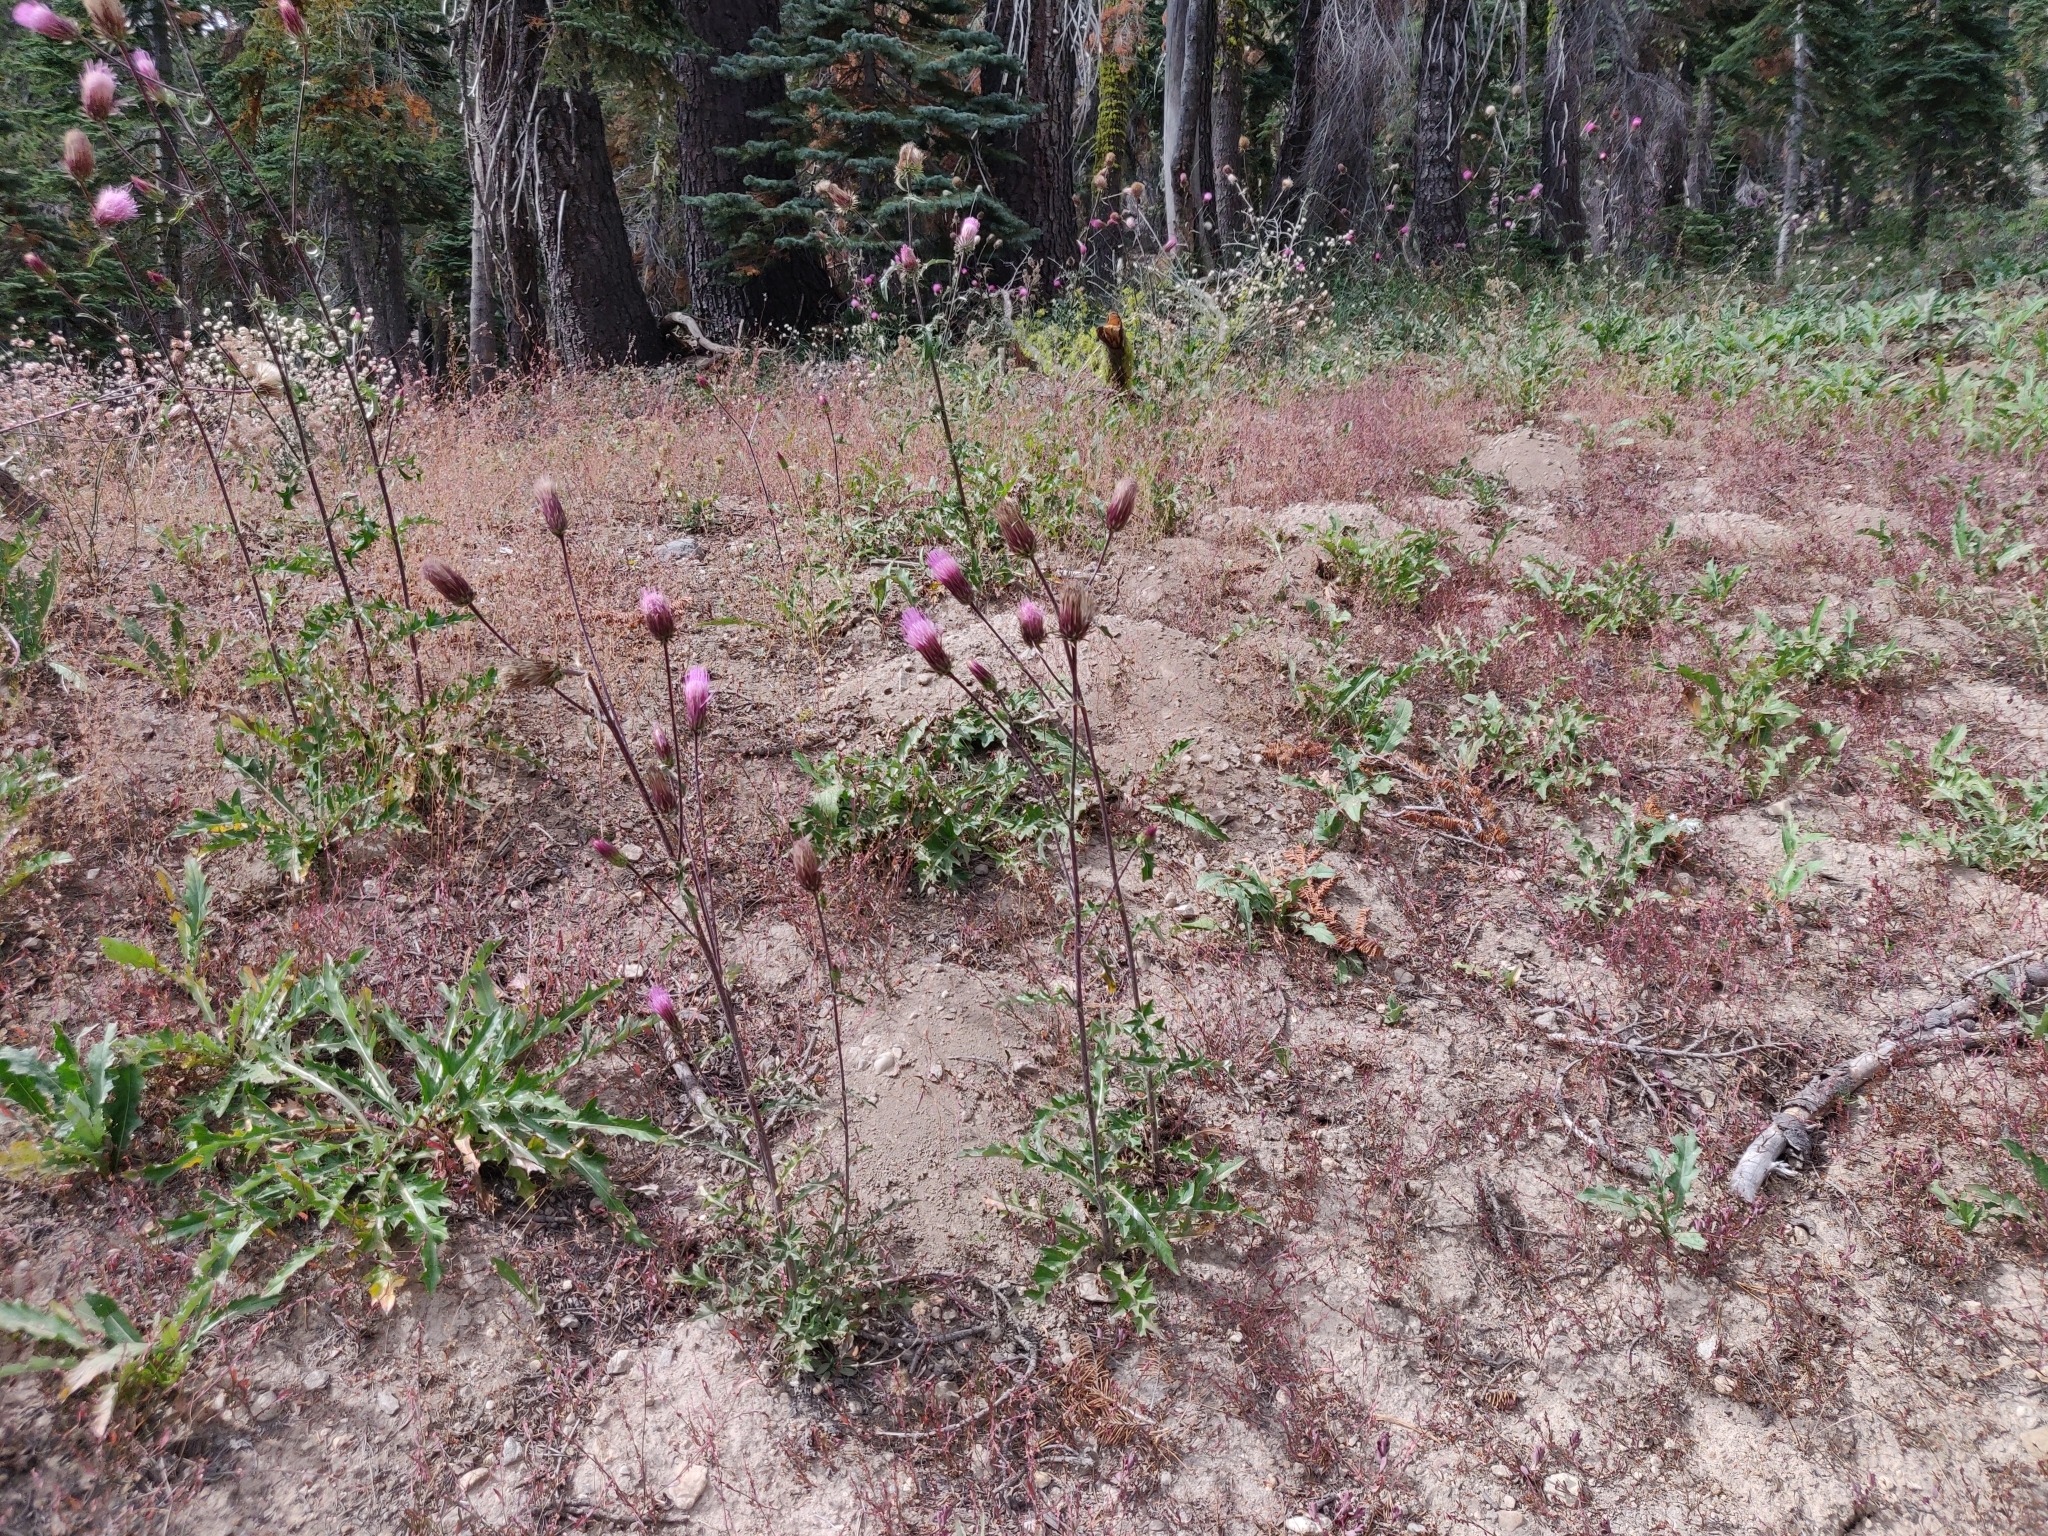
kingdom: Plantae
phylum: Tracheophyta
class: Magnoliopsida
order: Asterales
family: Asteraceae
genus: Cirsium
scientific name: Cirsium andersonii
